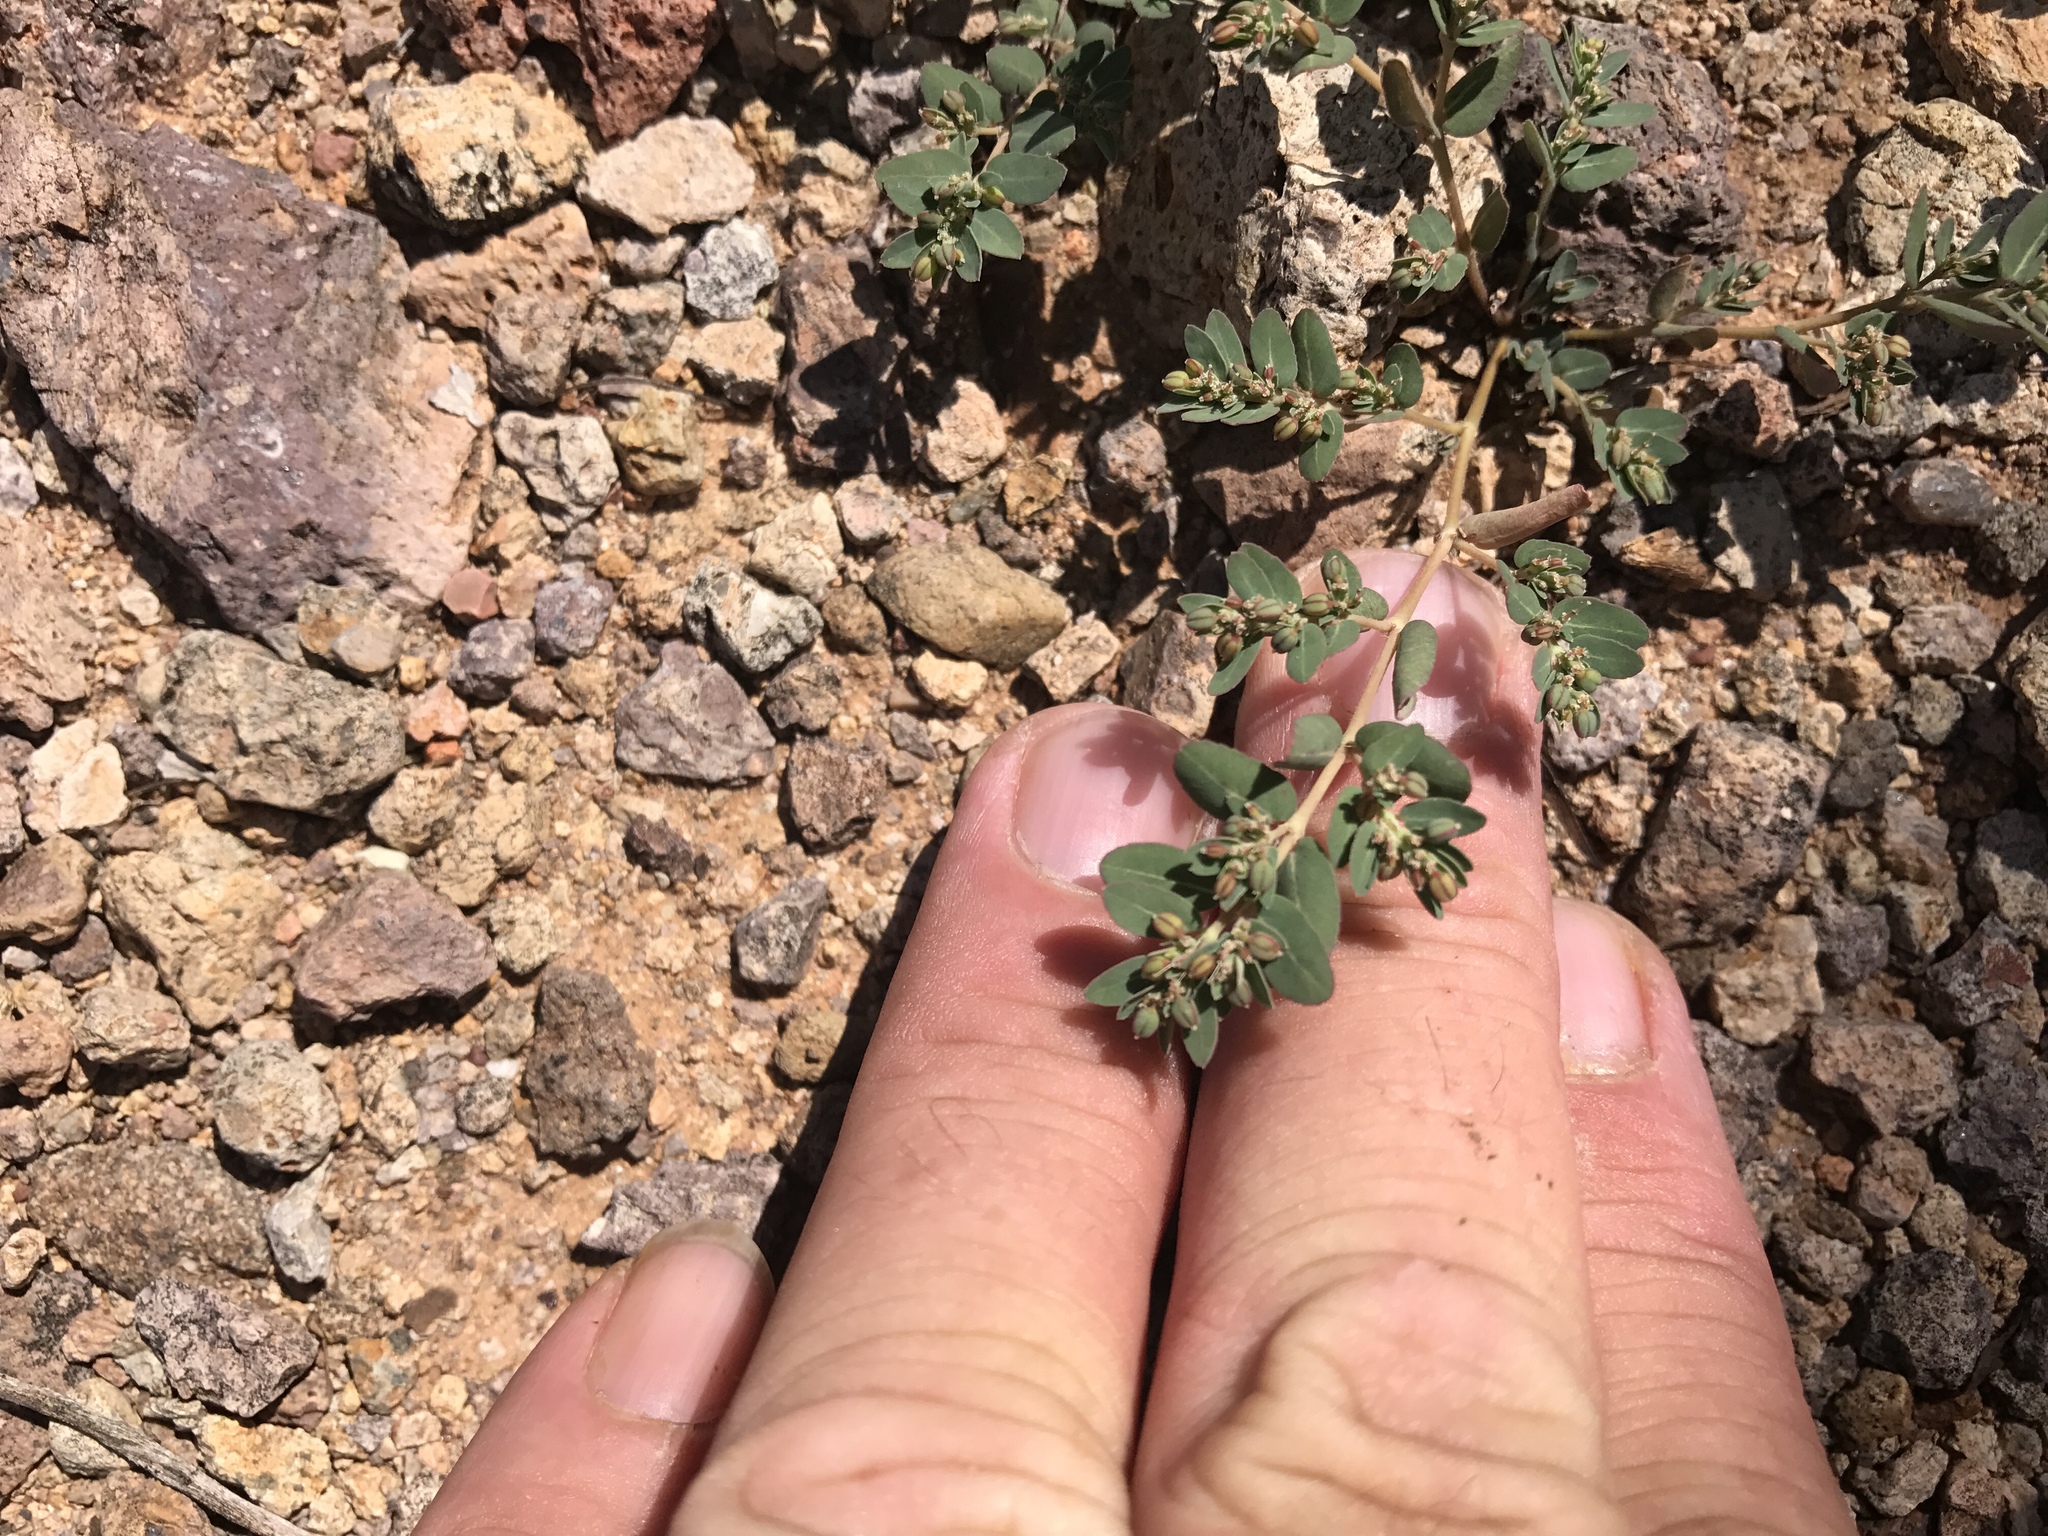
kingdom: Plantae
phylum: Tracheophyta
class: Magnoliopsida
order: Malpighiales
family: Euphorbiaceae
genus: Euphorbia
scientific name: Euphorbia abramsiana
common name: Abram's spurge
